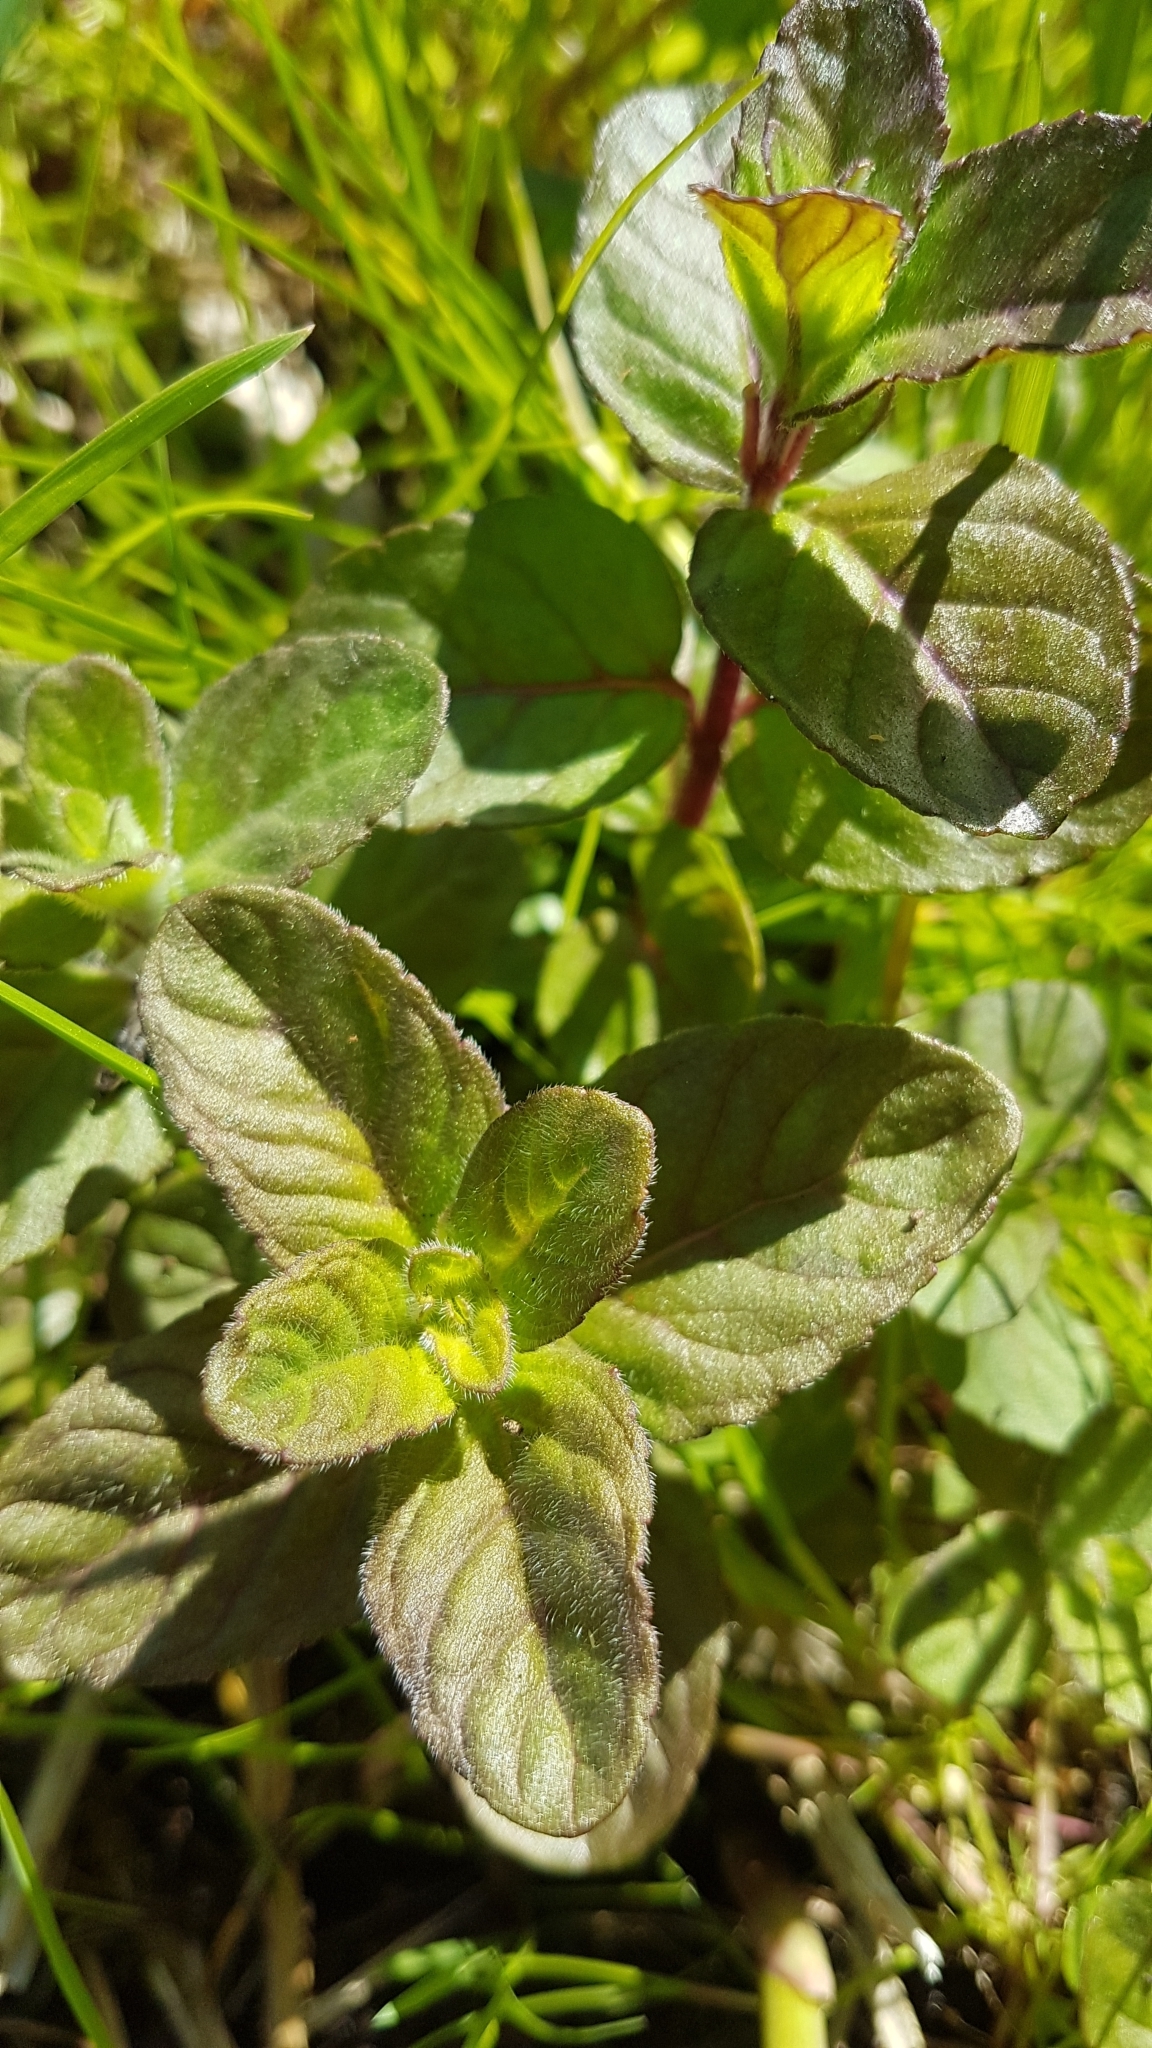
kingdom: Plantae
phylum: Tracheophyta
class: Magnoliopsida
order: Lamiales
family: Lamiaceae
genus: Mentha
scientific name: Mentha aquatica
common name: Water mint
